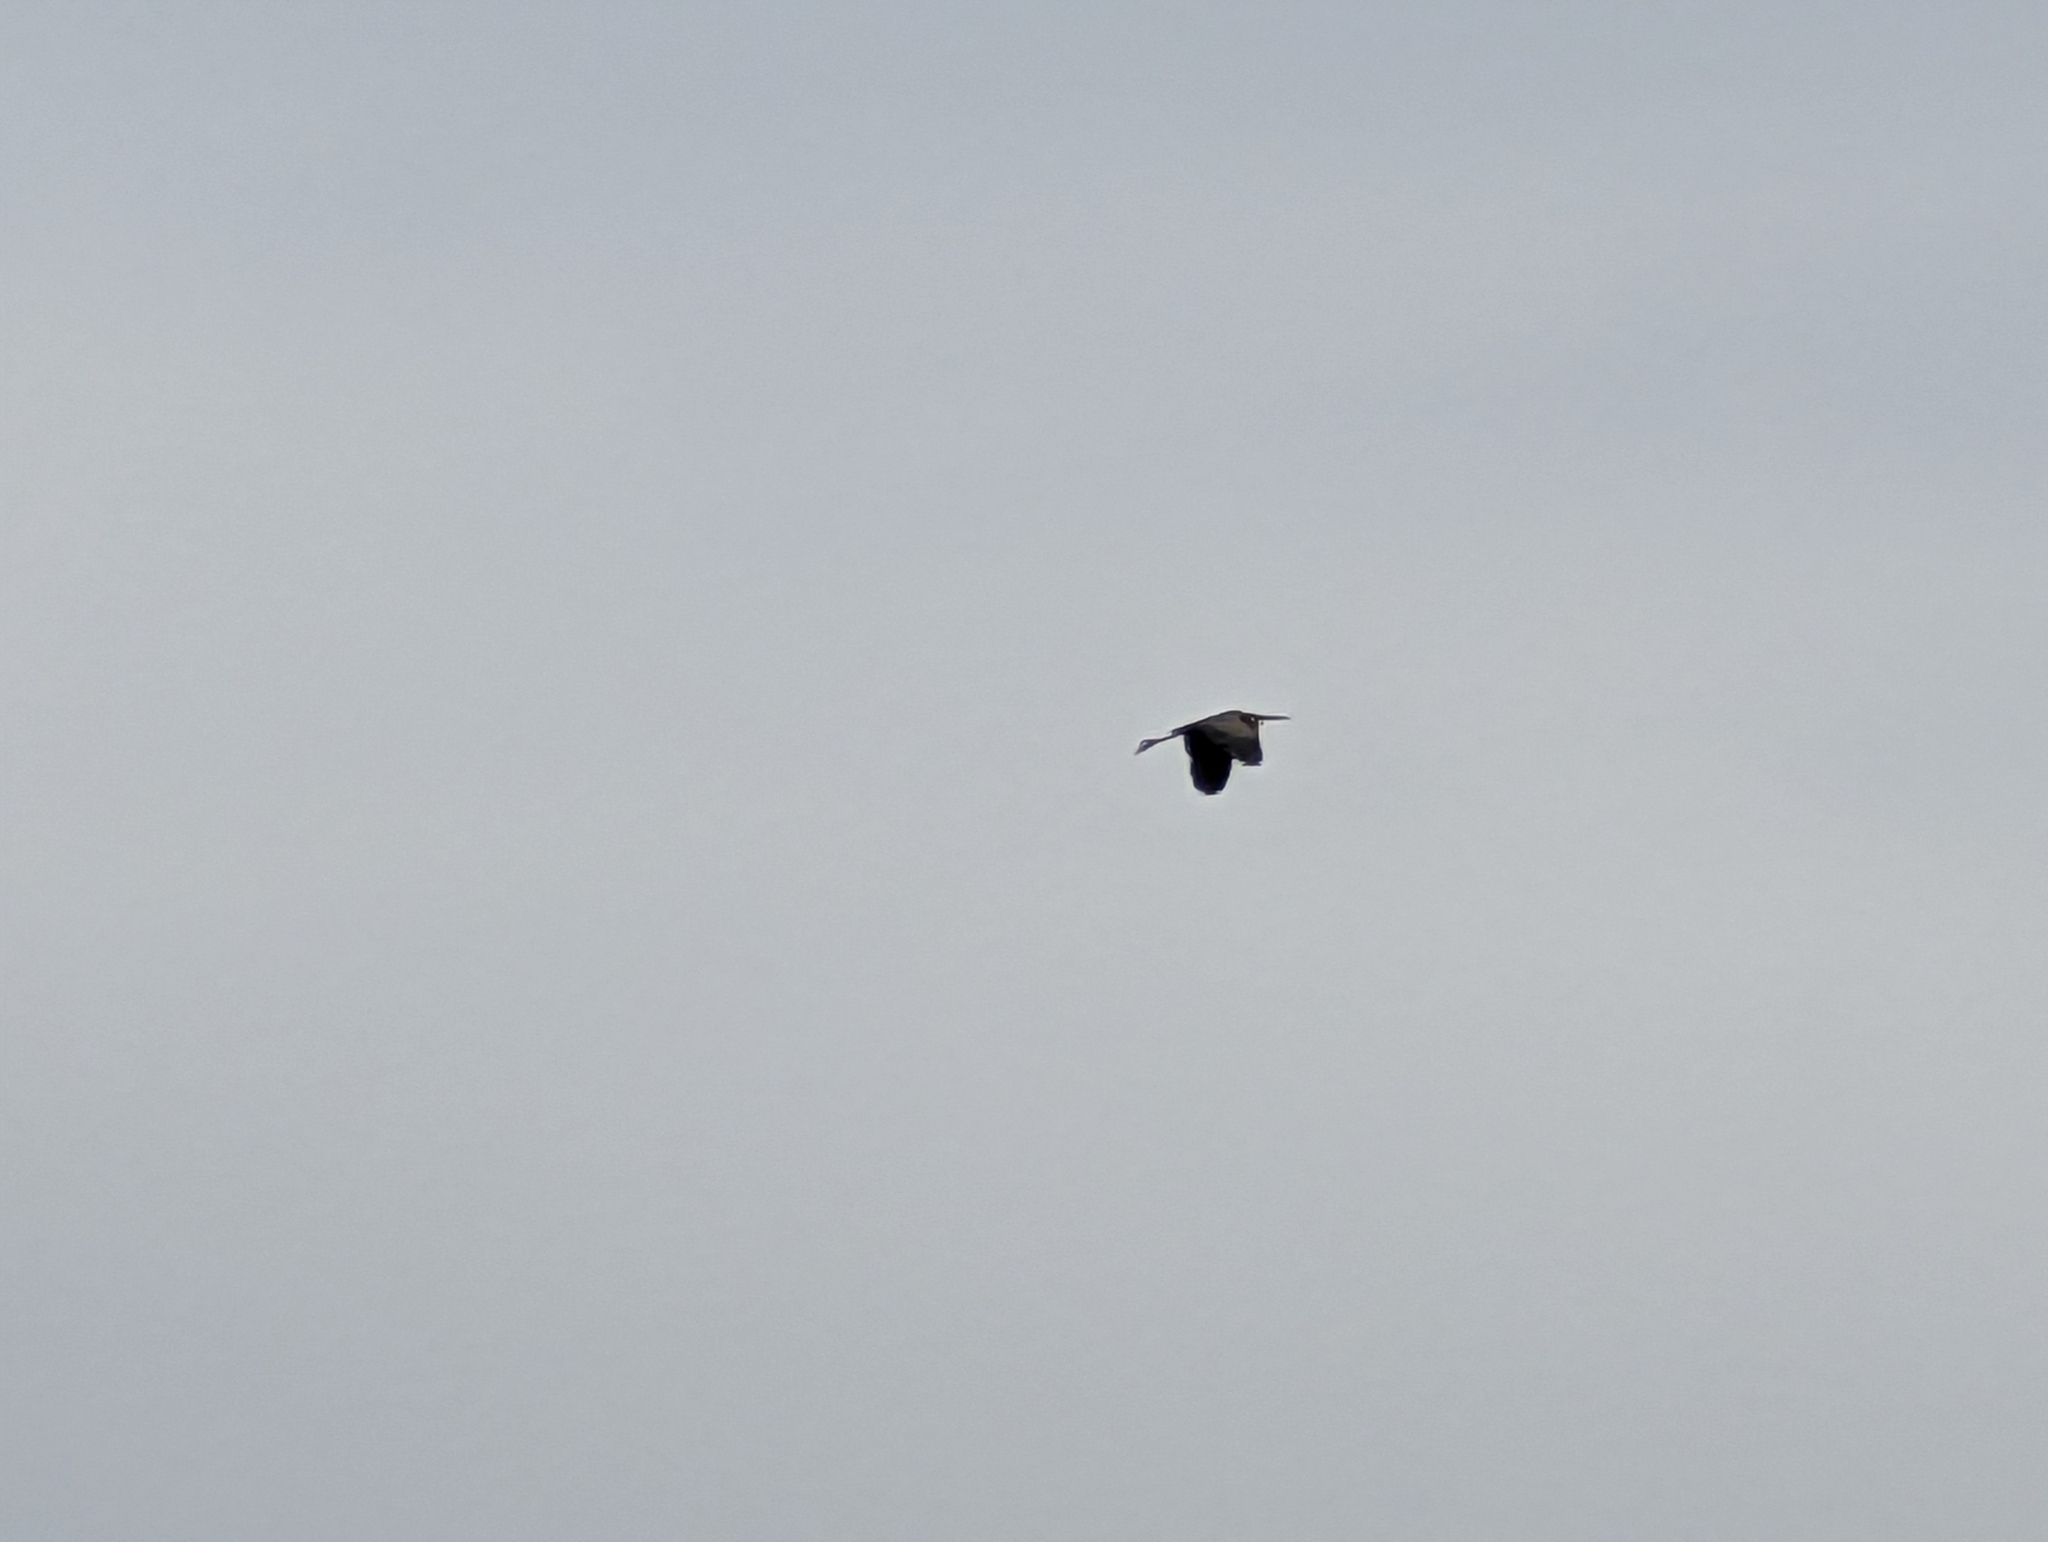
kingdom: Animalia
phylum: Chordata
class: Aves
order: Pelecaniformes
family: Ardeidae
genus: Ardea
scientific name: Ardea cinerea
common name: Grey heron
